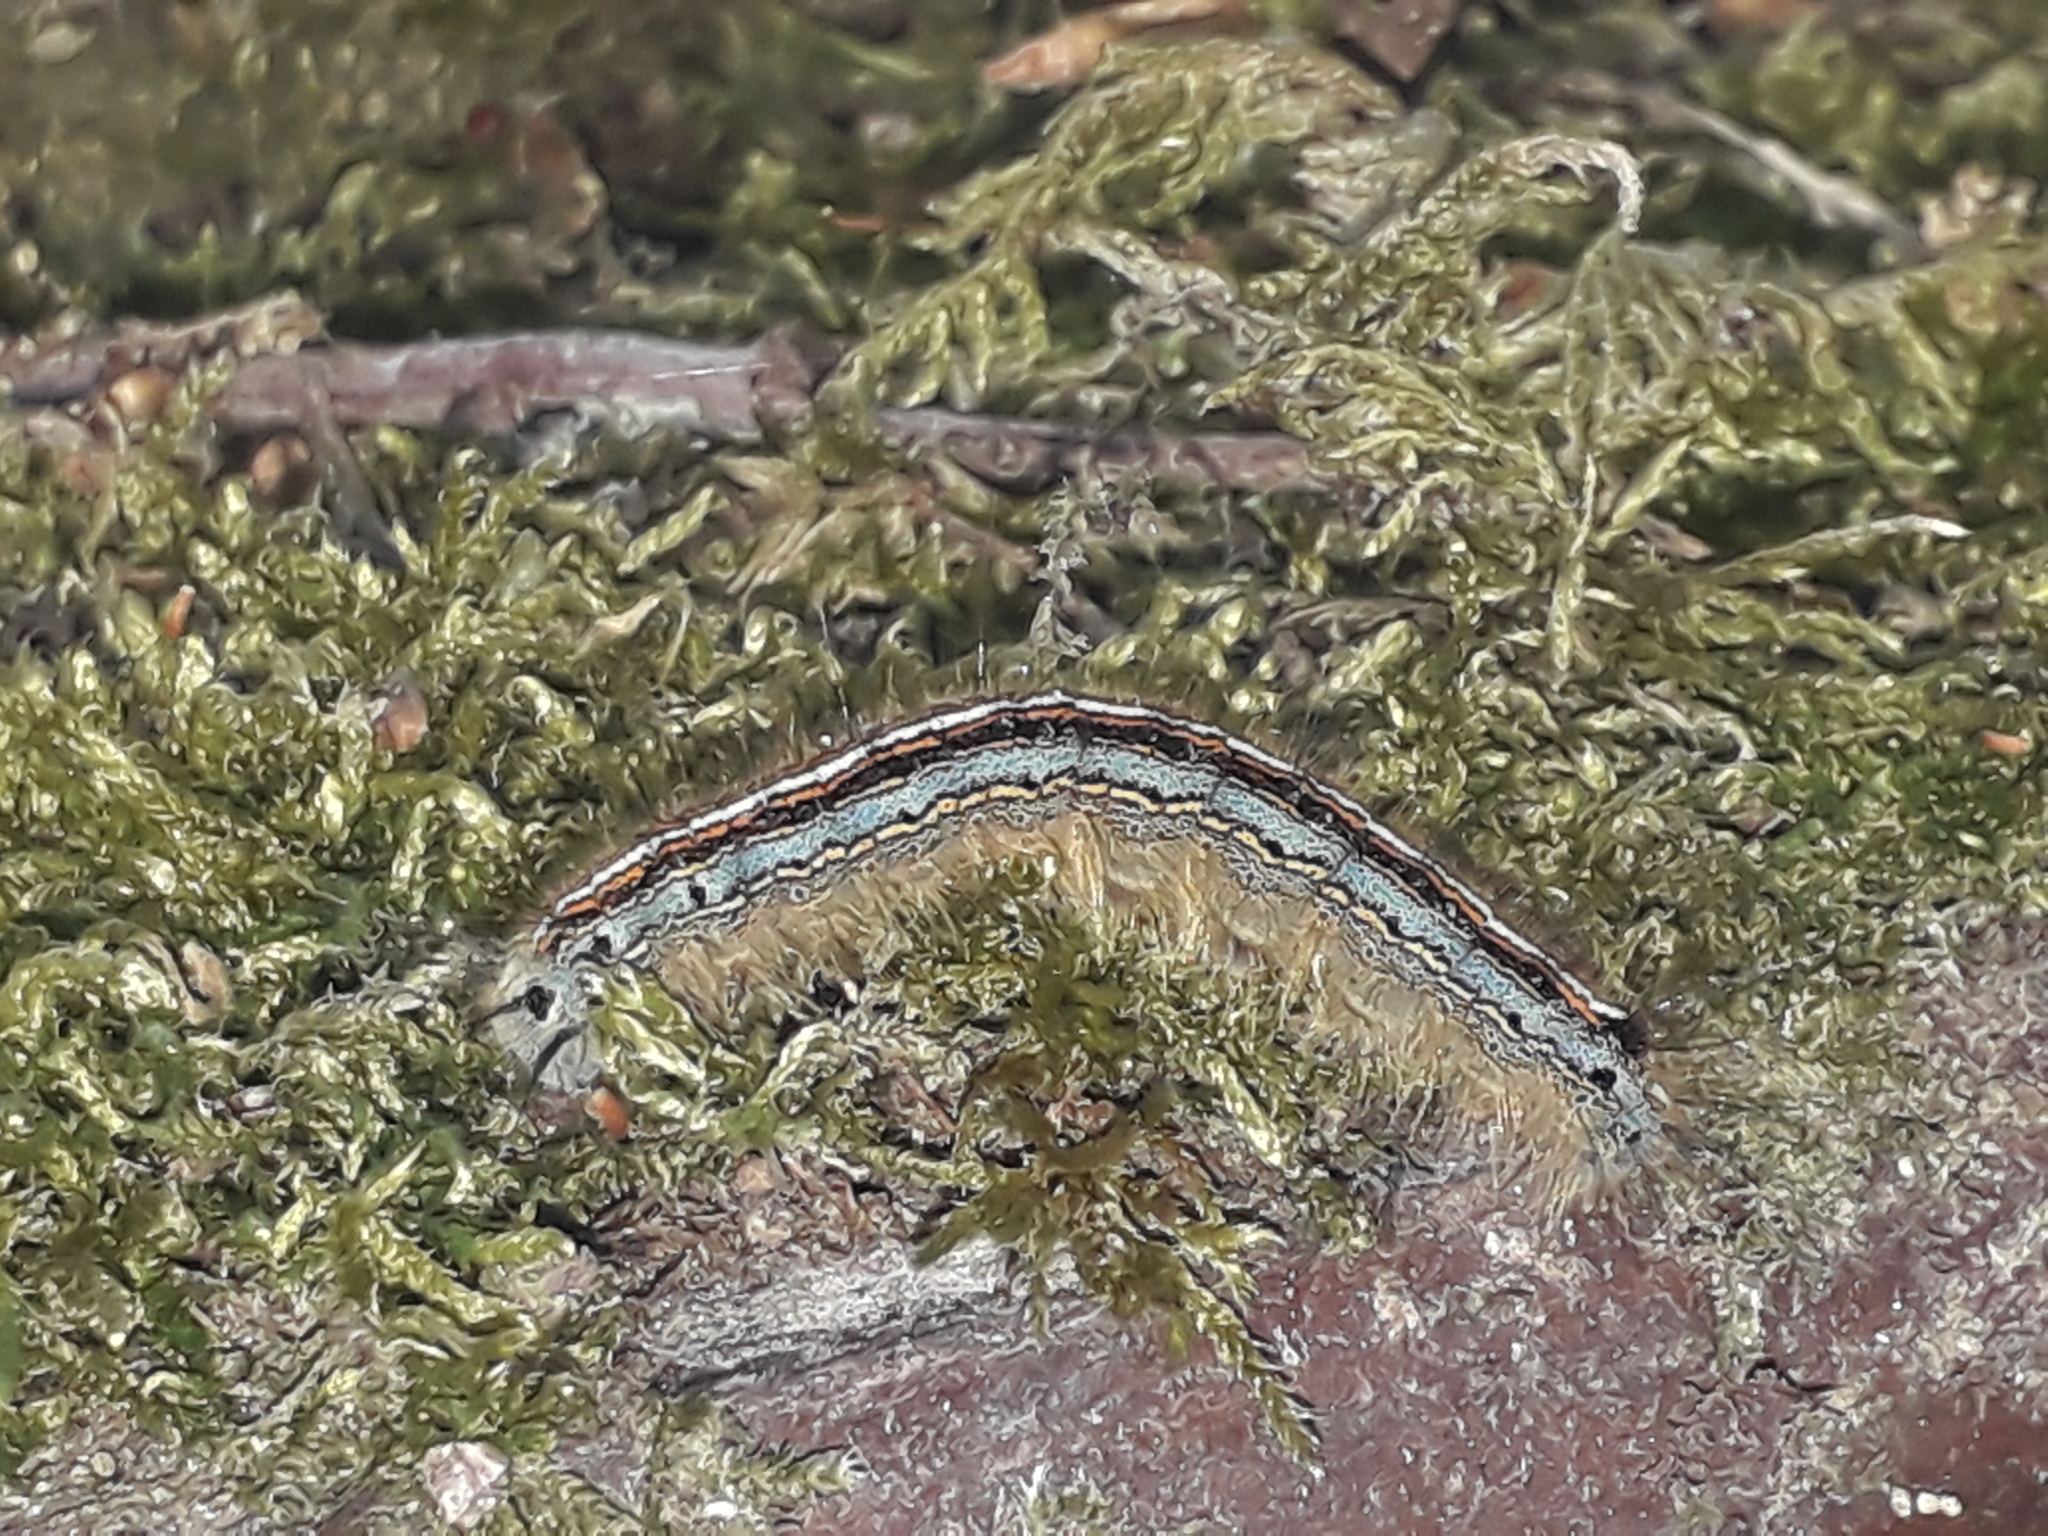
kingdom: Animalia
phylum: Arthropoda
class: Insecta
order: Lepidoptera
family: Lasiocampidae
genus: Malacosoma
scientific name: Malacosoma neustria
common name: The lackey
